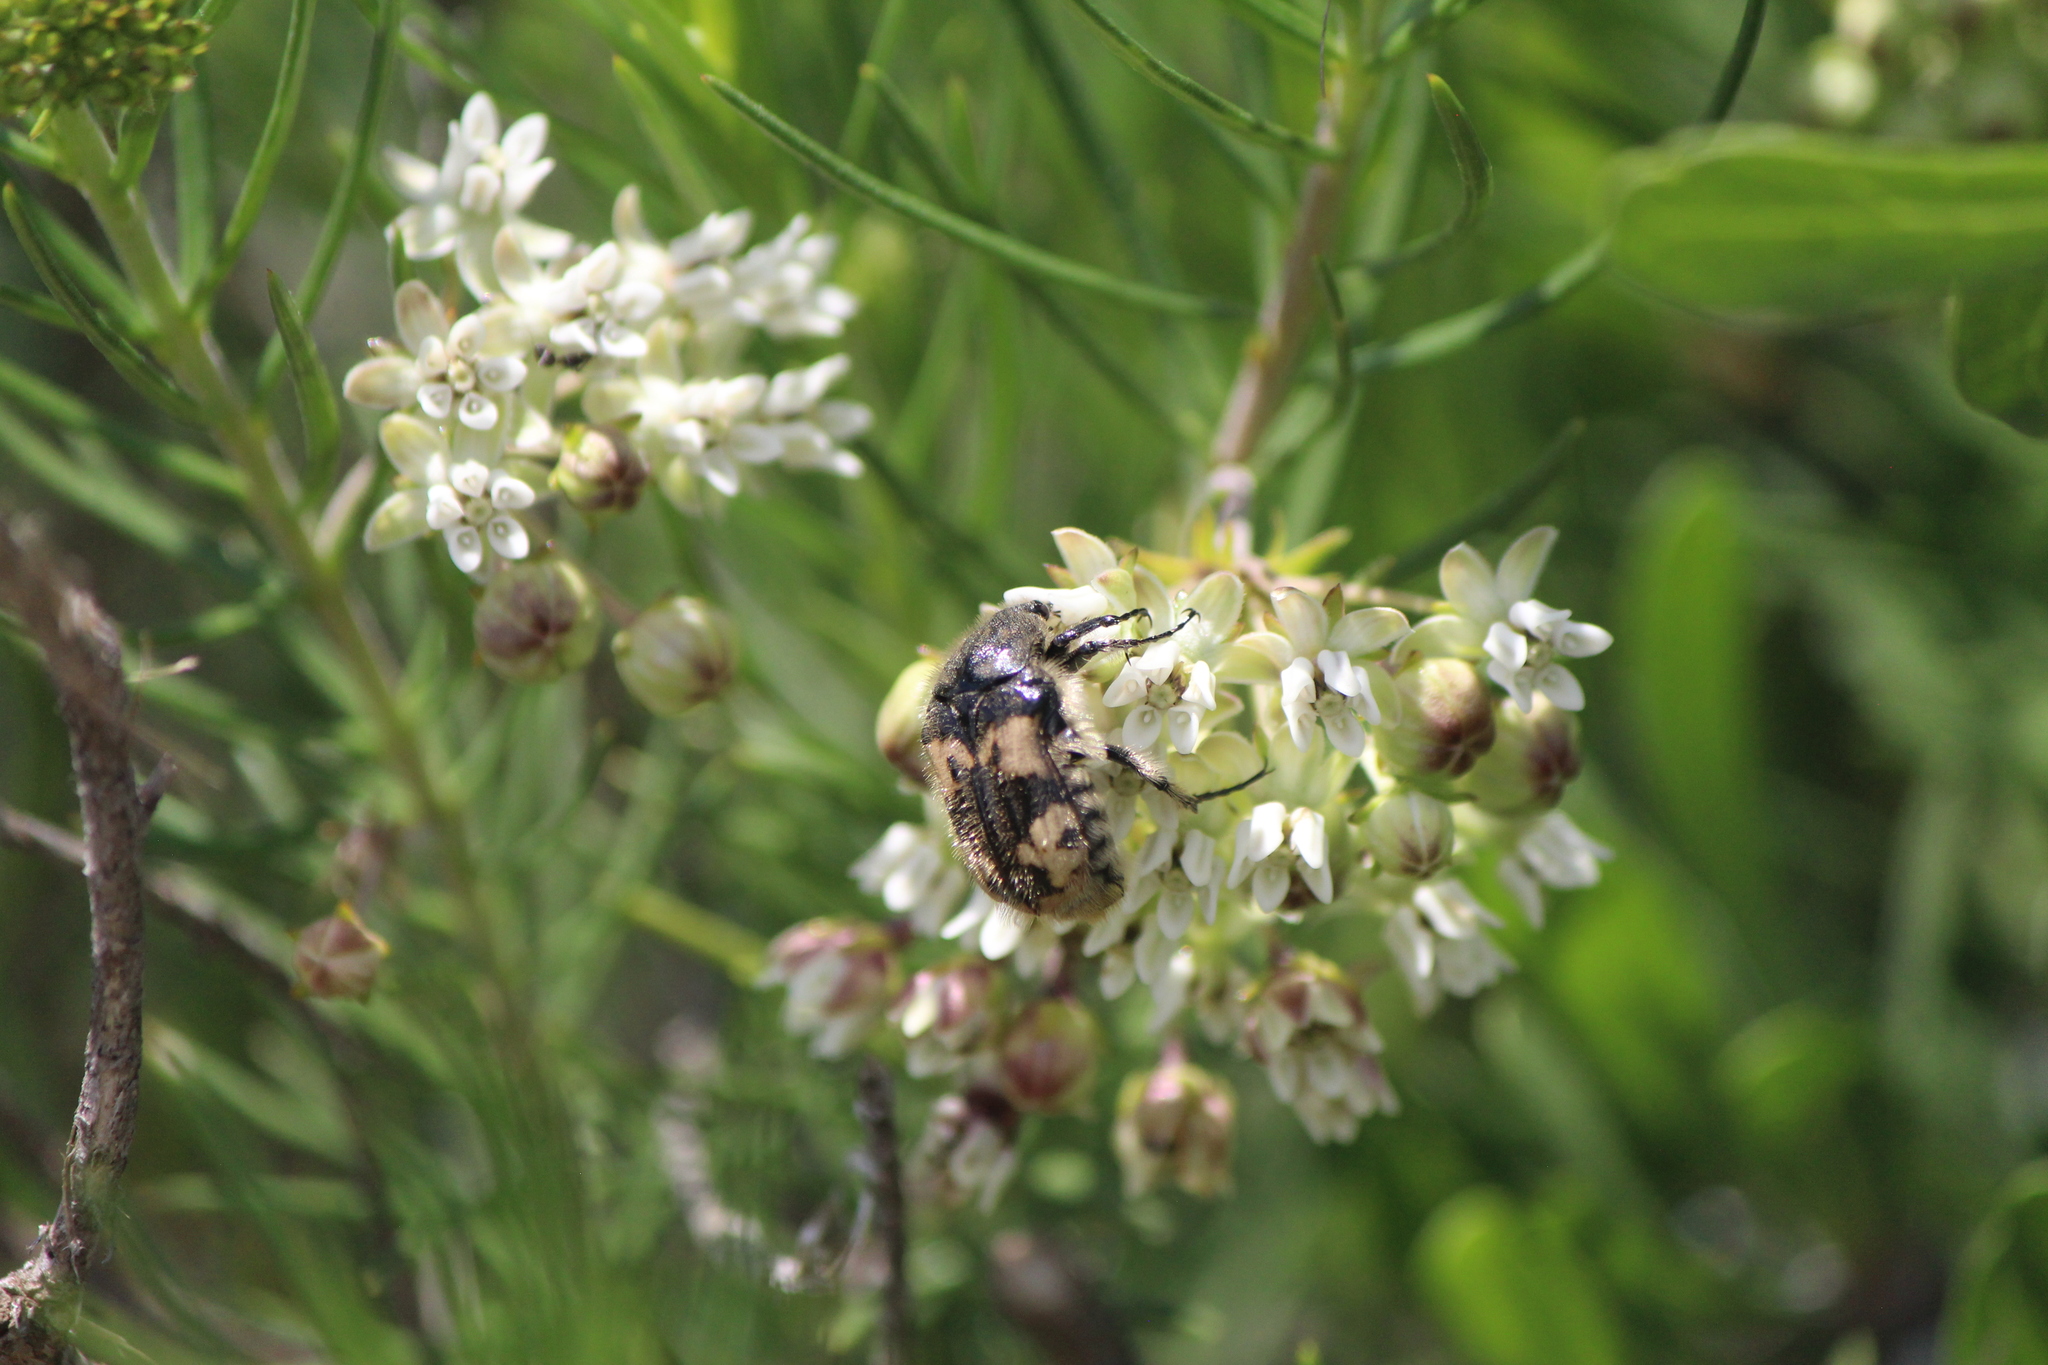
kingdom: Animalia
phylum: Arthropoda
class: Insecta
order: Coleoptera
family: Scarabaeidae
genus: Euphoria
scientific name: Euphoria basalis
